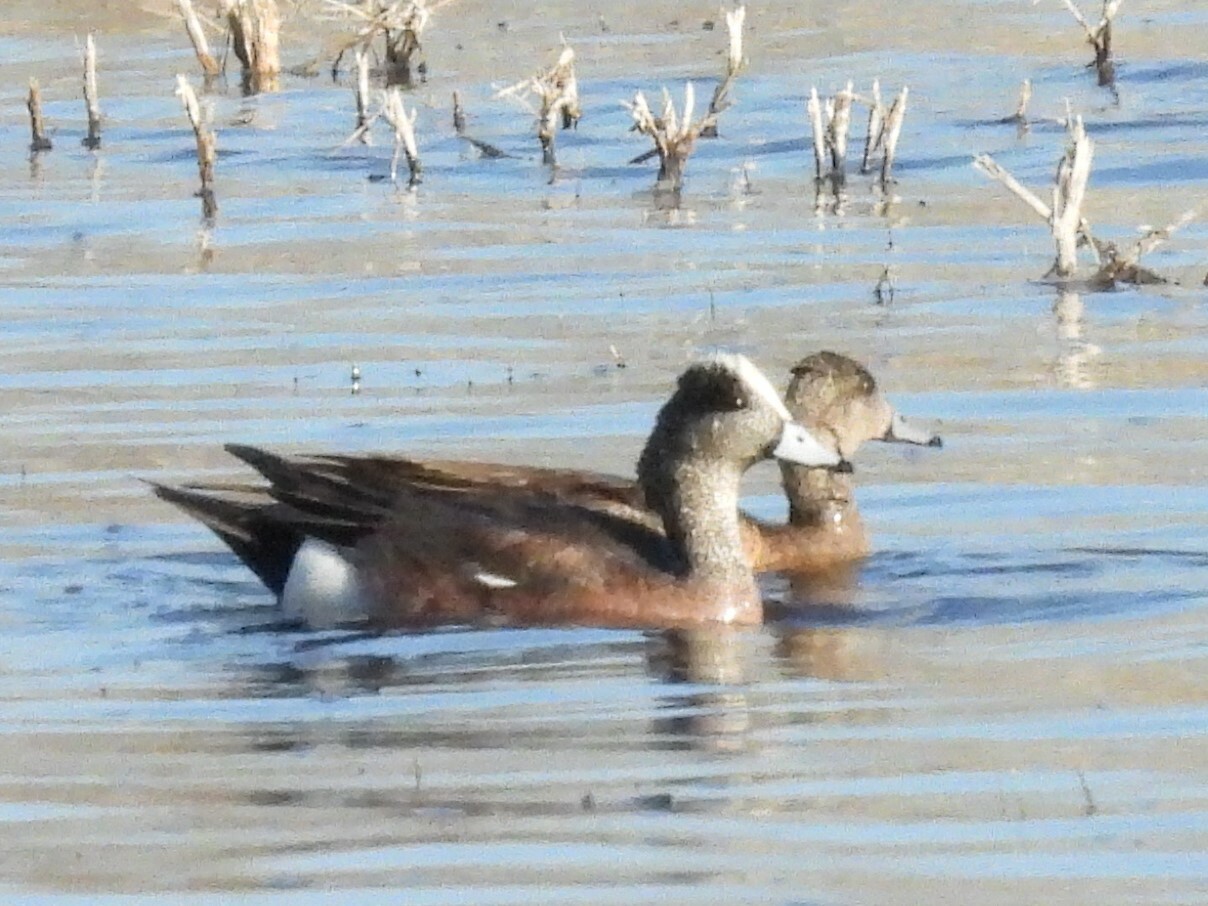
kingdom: Animalia
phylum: Chordata
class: Aves
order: Anseriformes
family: Anatidae
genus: Mareca
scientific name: Mareca americana
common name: American wigeon
